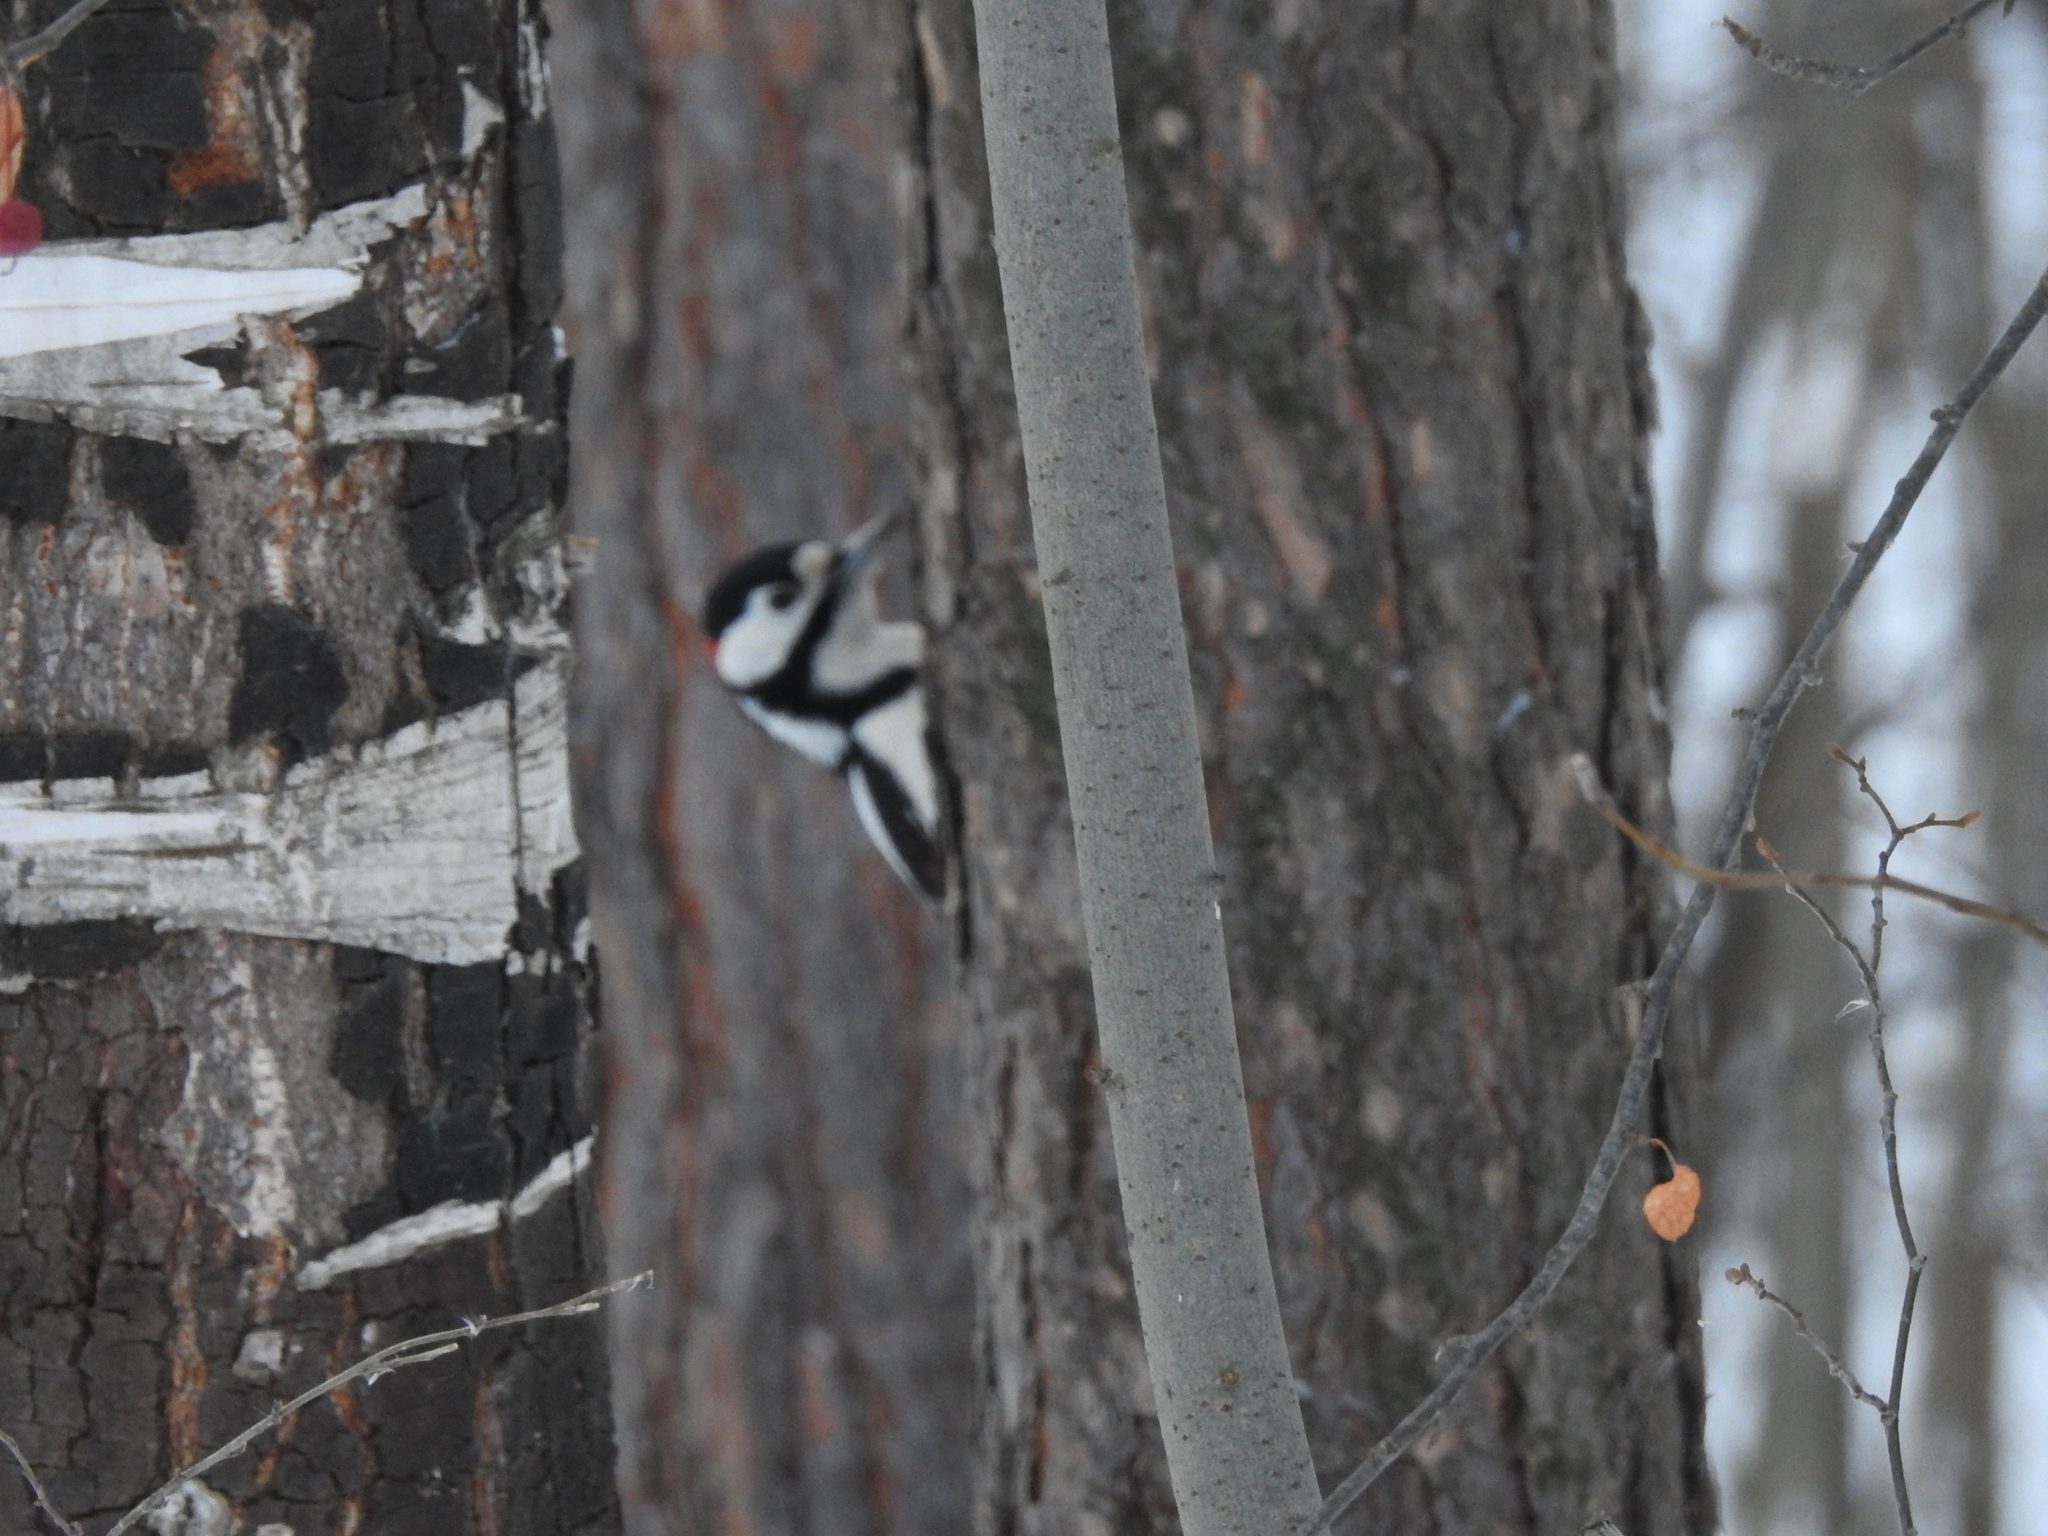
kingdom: Animalia
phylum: Chordata
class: Aves
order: Piciformes
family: Picidae
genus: Dendrocopos
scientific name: Dendrocopos major
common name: Great spotted woodpecker
